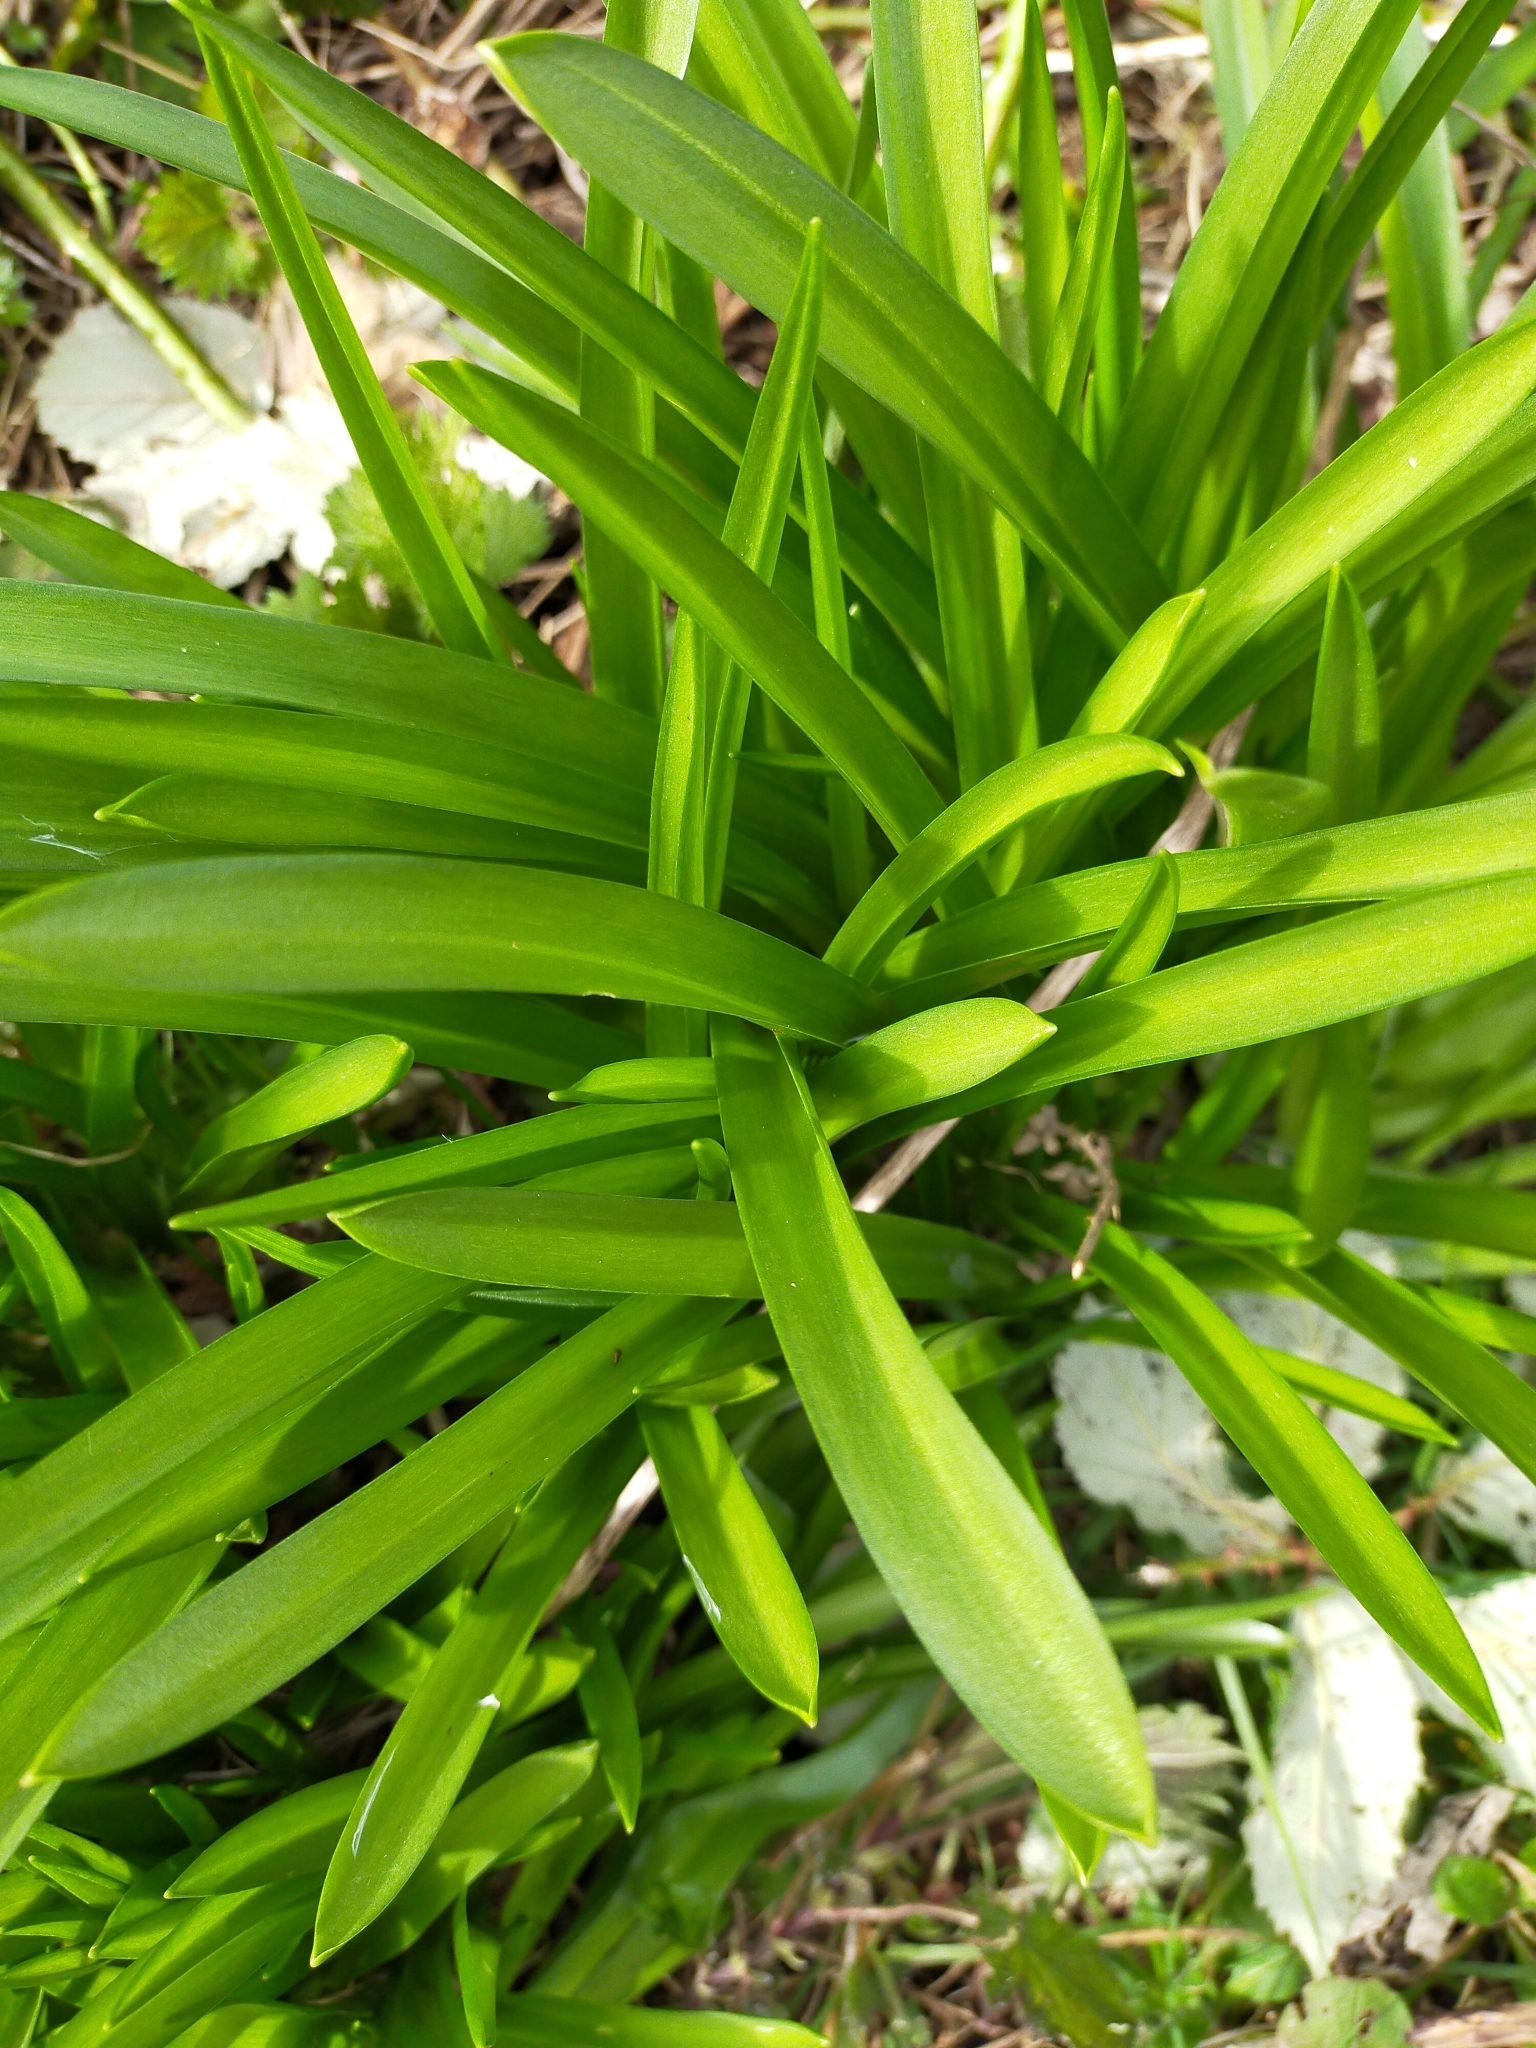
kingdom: Plantae
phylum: Tracheophyta
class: Liliopsida
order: Asparagales
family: Asparagaceae
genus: Hyacinthoides
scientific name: Hyacinthoides massartiana
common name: Hyacinthoides
